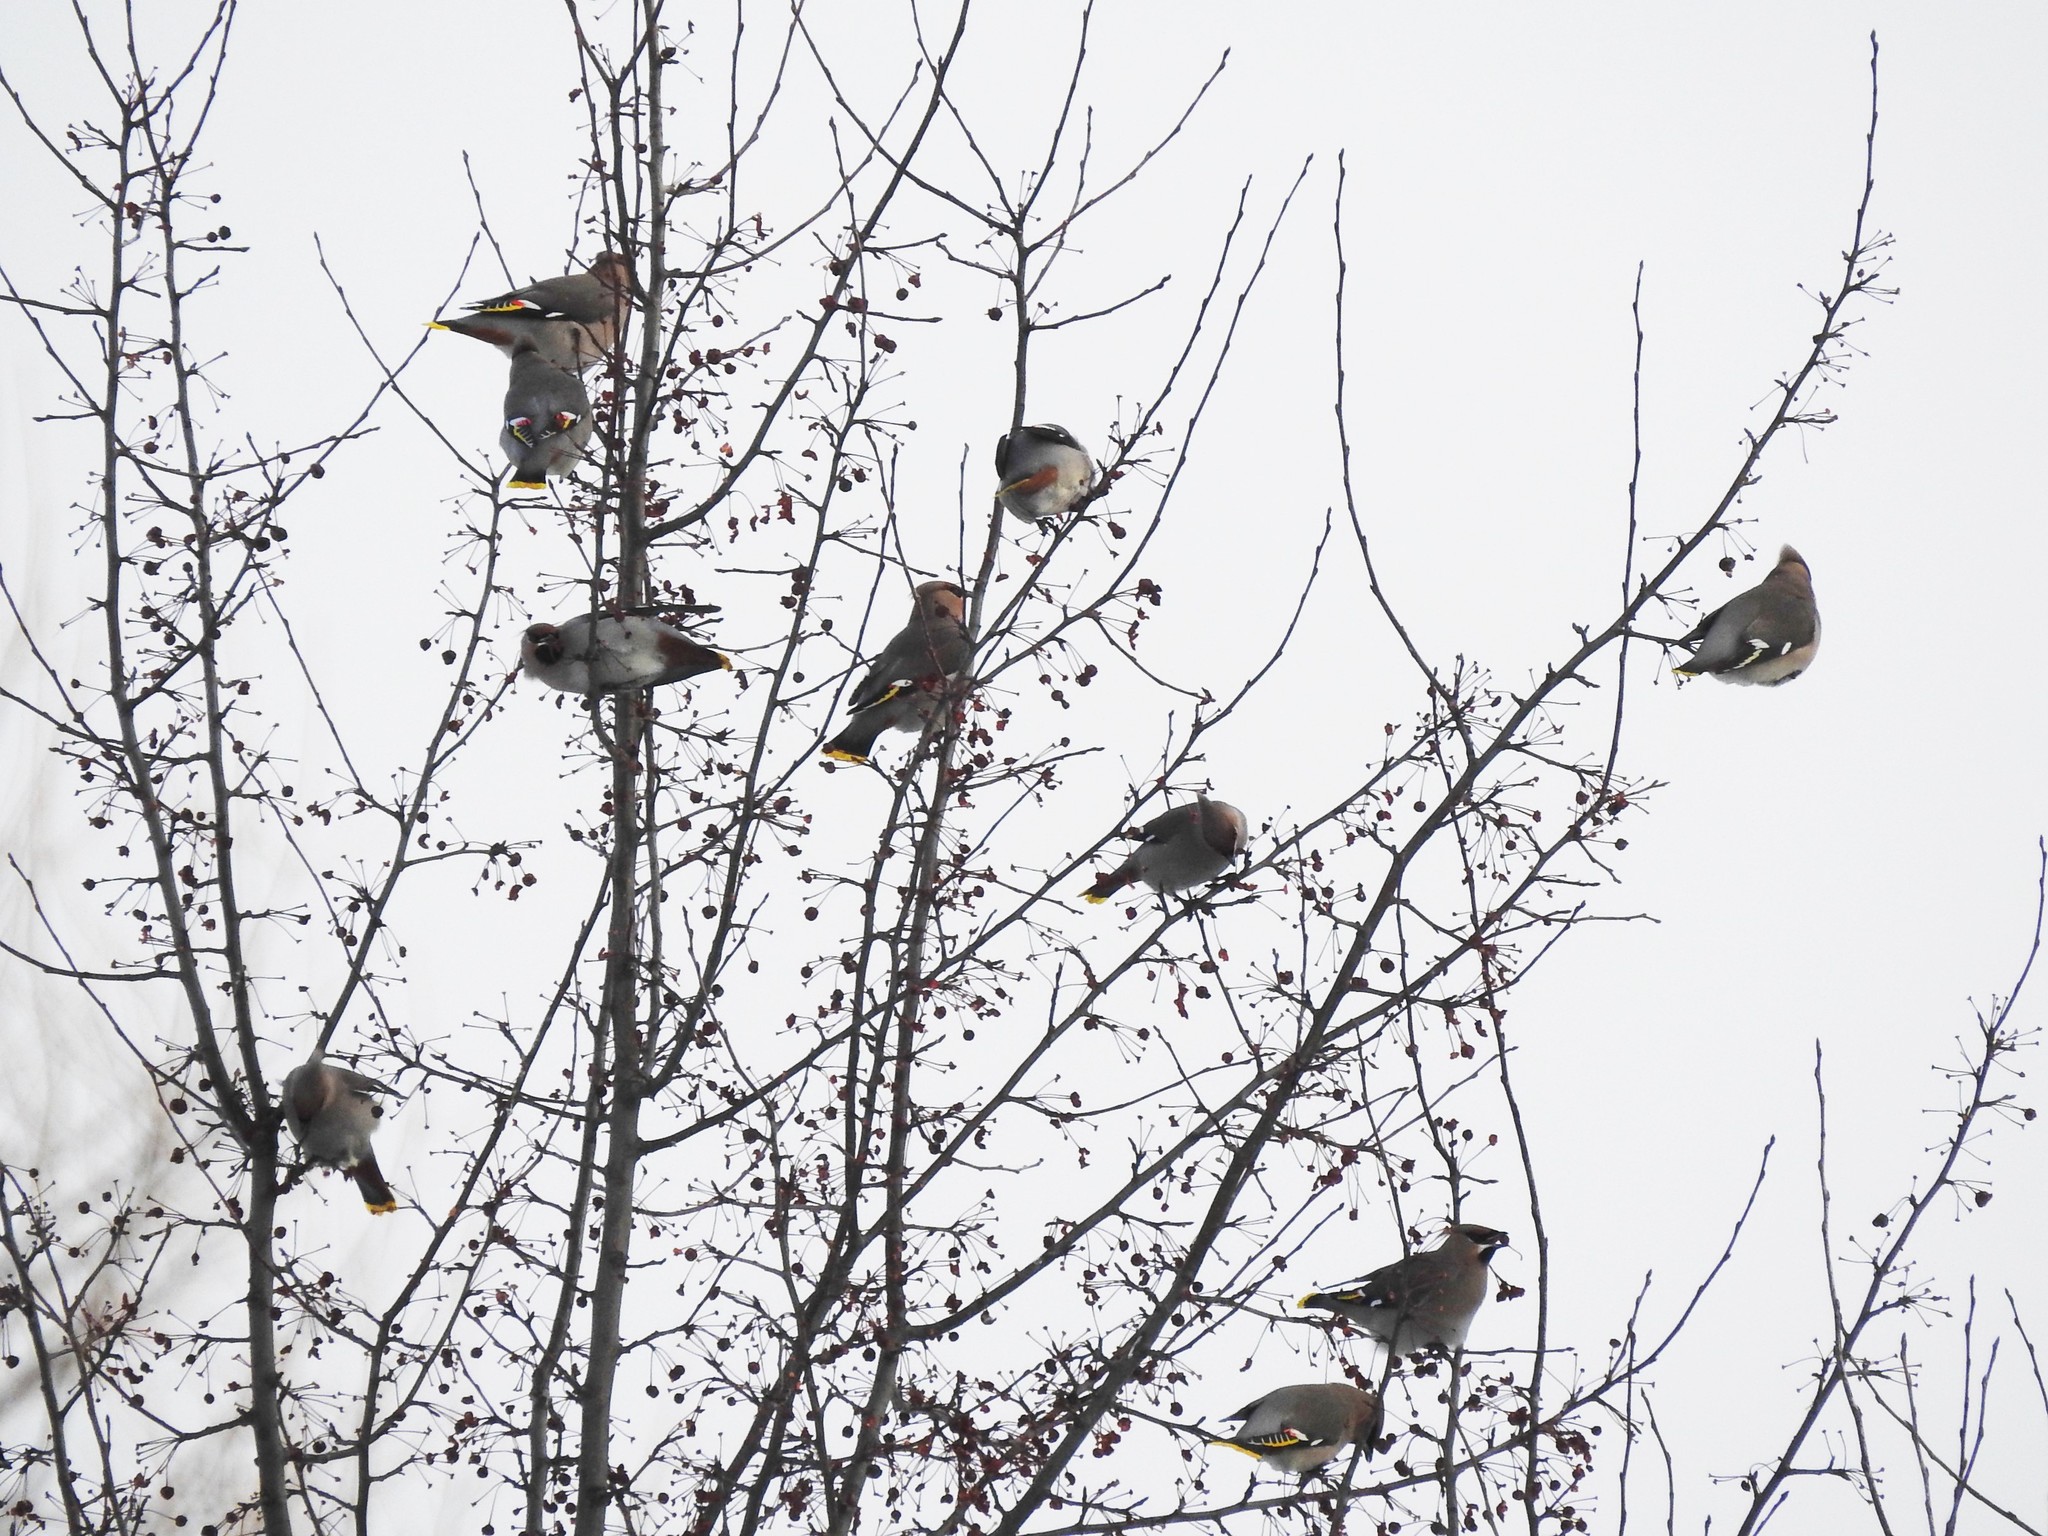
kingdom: Animalia
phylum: Chordata
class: Aves
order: Passeriformes
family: Bombycillidae
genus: Bombycilla
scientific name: Bombycilla garrulus
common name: Bohemian waxwing
